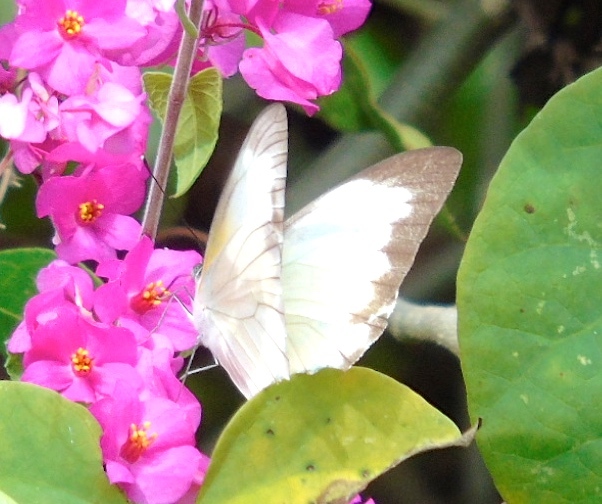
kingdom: Animalia
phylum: Arthropoda
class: Insecta
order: Lepidoptera
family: Pieridae
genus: Glutophrissa
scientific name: Glutophrissa drusilla
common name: Florida white
